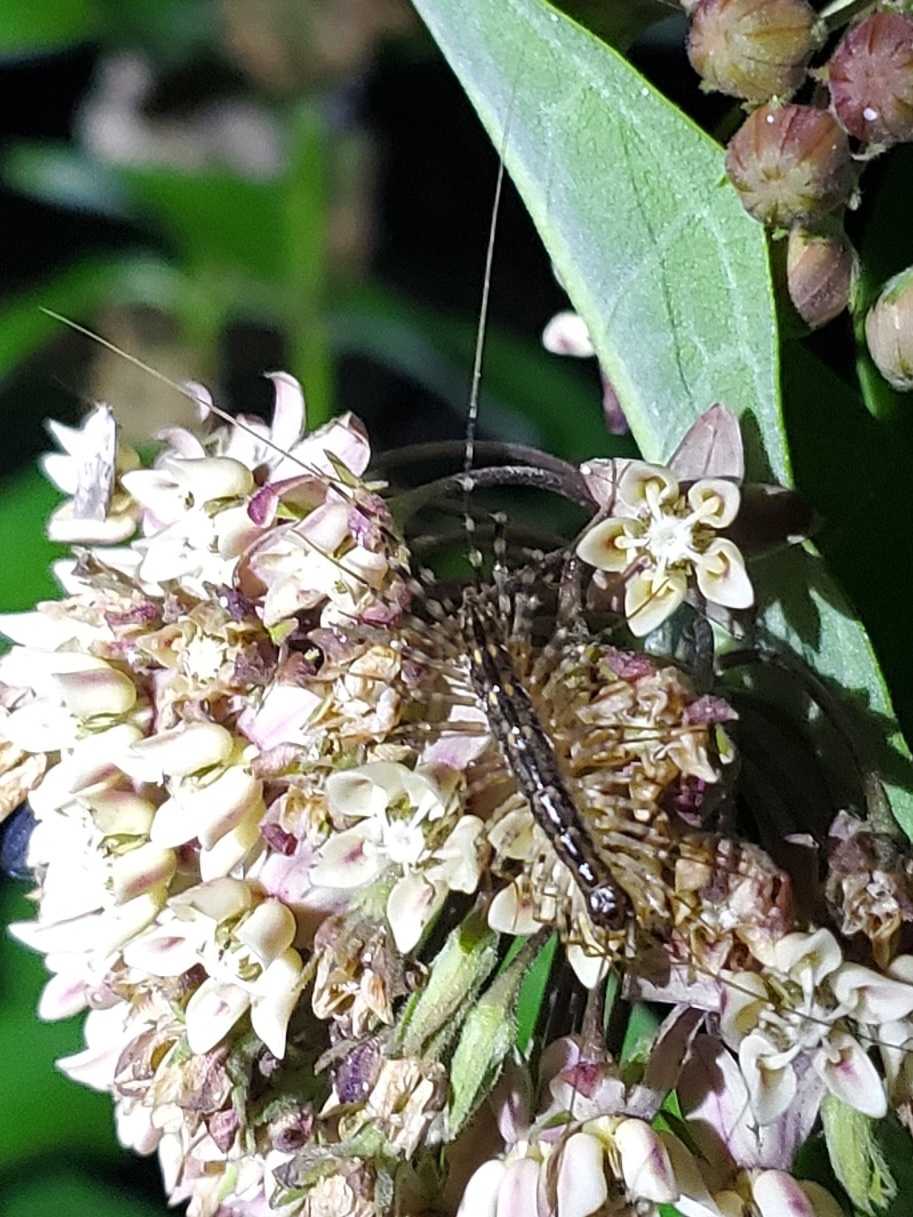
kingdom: Animalia
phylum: Arthropoda
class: Chilopoda
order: Scutigeromorpha
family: Scutigeridae
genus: Thereuonema
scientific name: Thereuonema tuberculata
